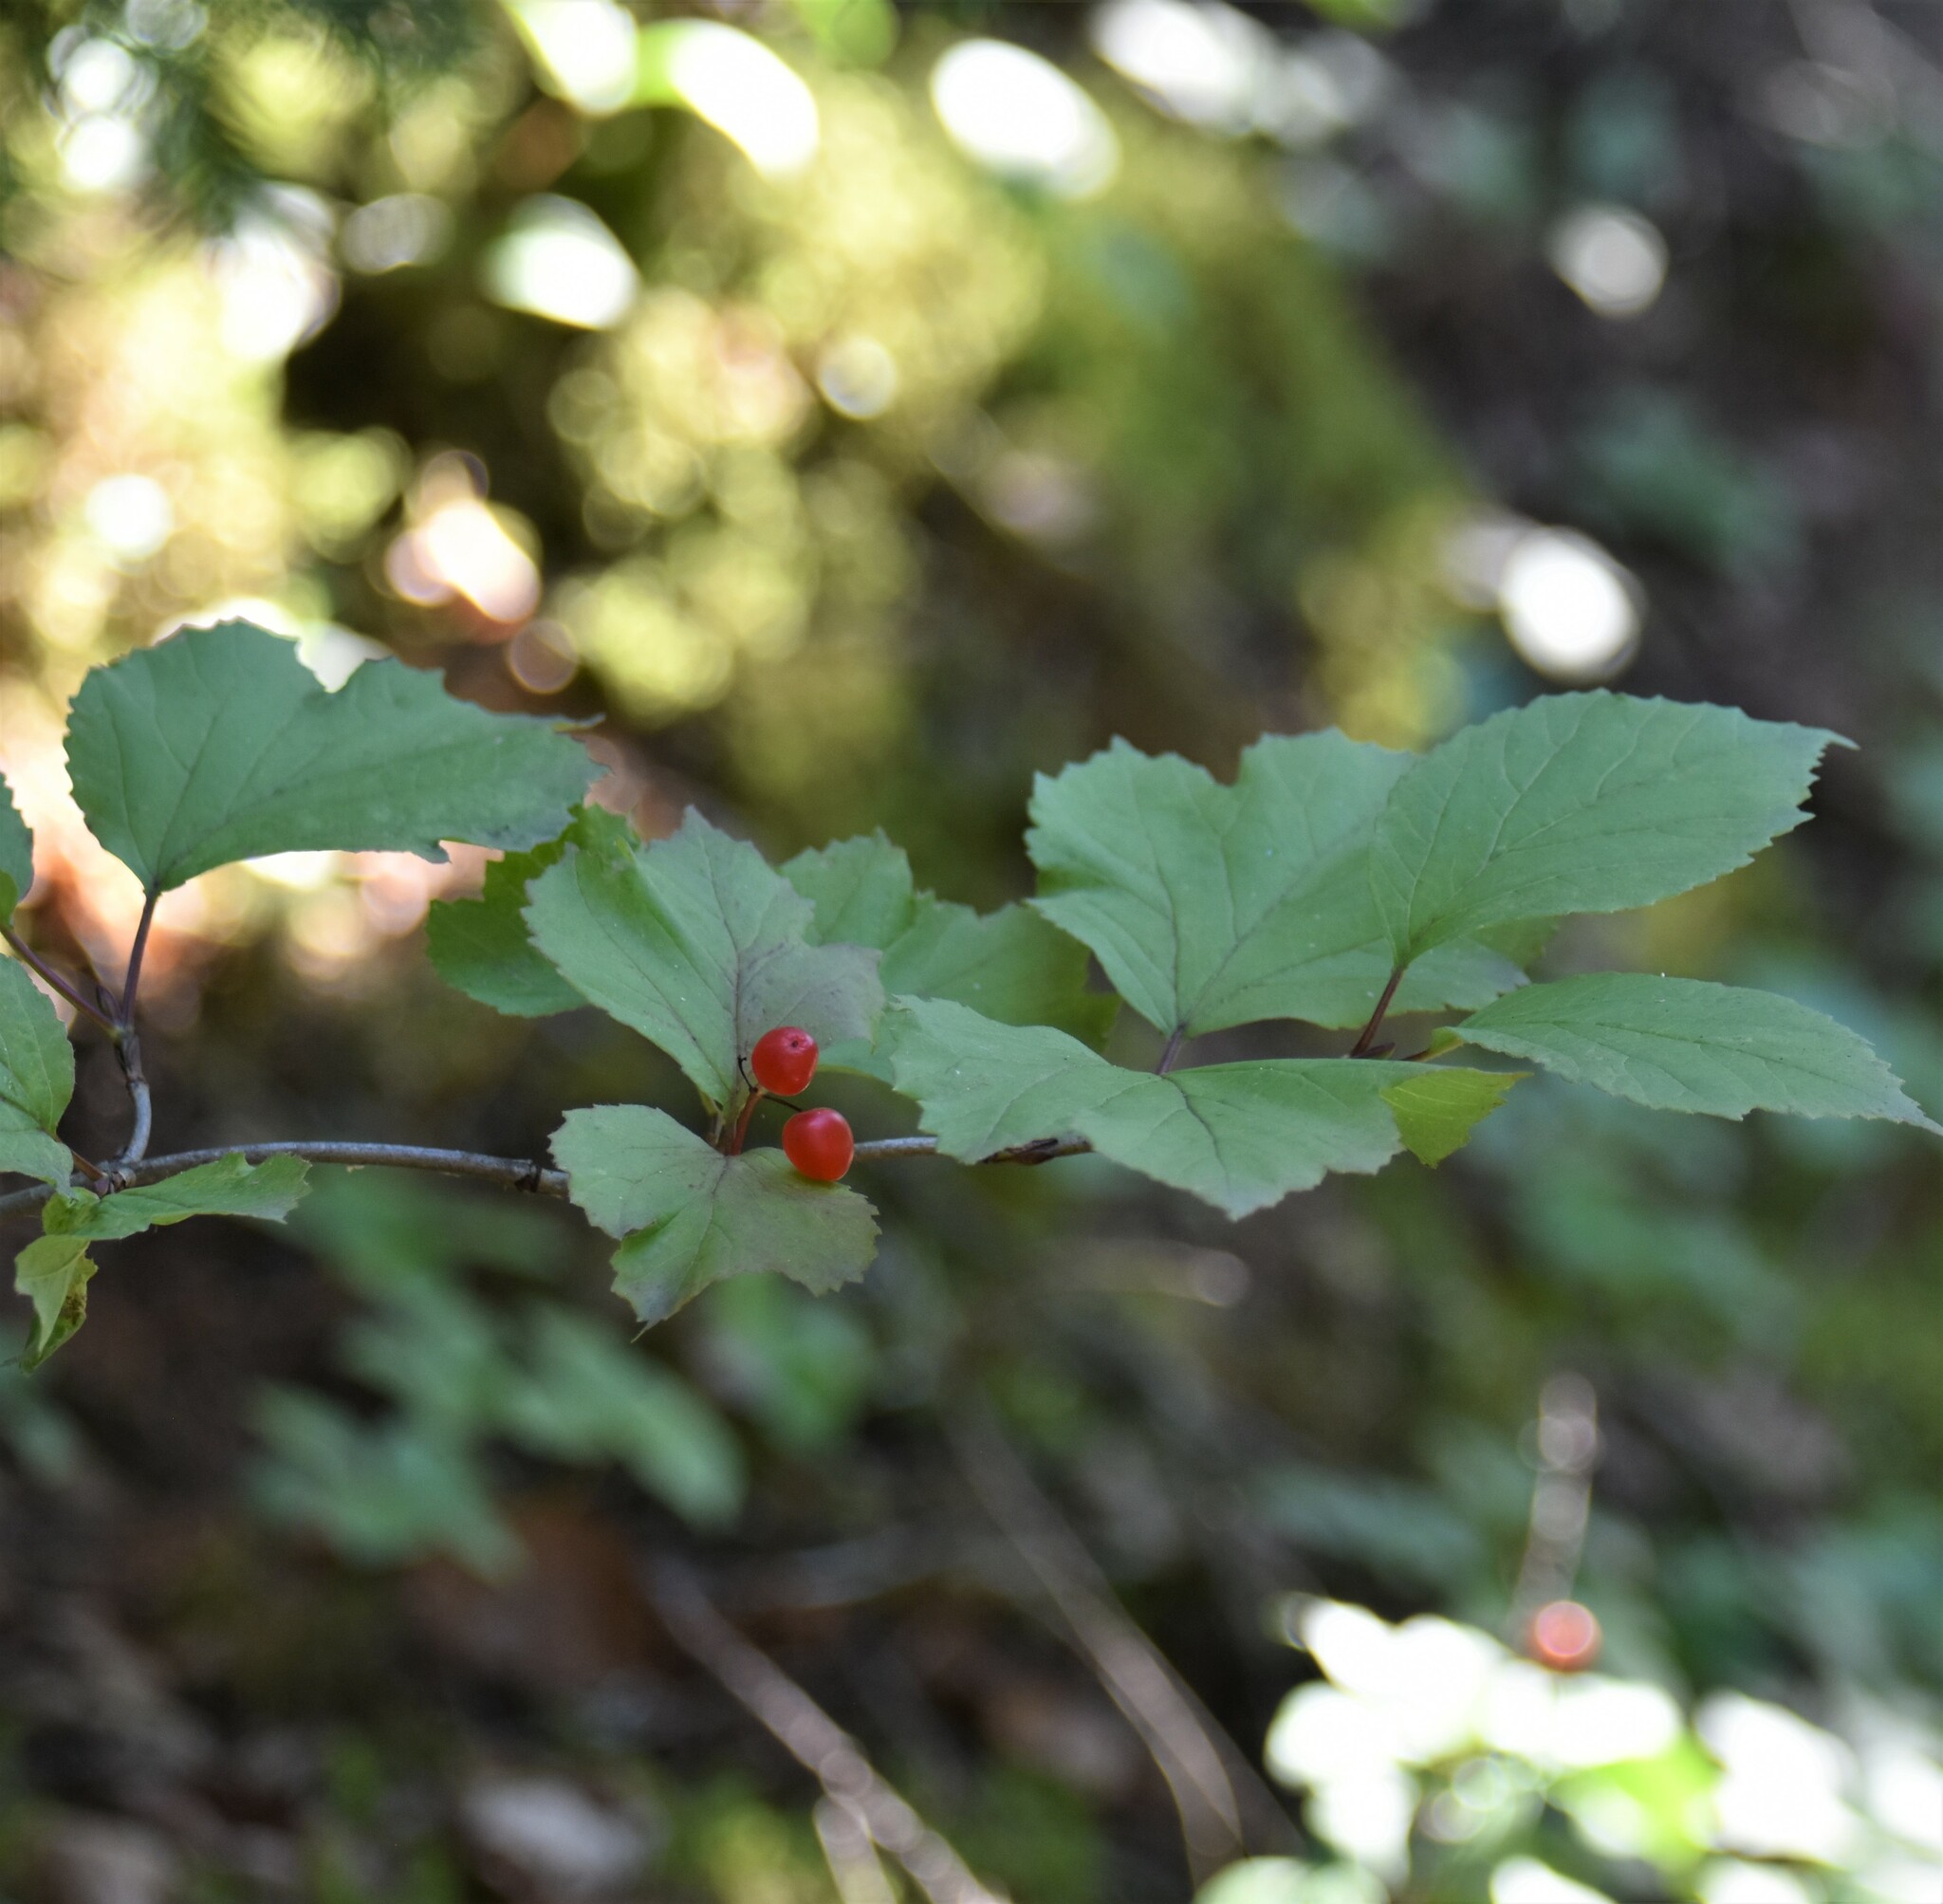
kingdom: Plantae
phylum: Tracheophyta
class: Magnoliopsida
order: Dipsacales
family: Viburnaceae
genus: Viburnum
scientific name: Viburnum edule
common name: Mooseberry
